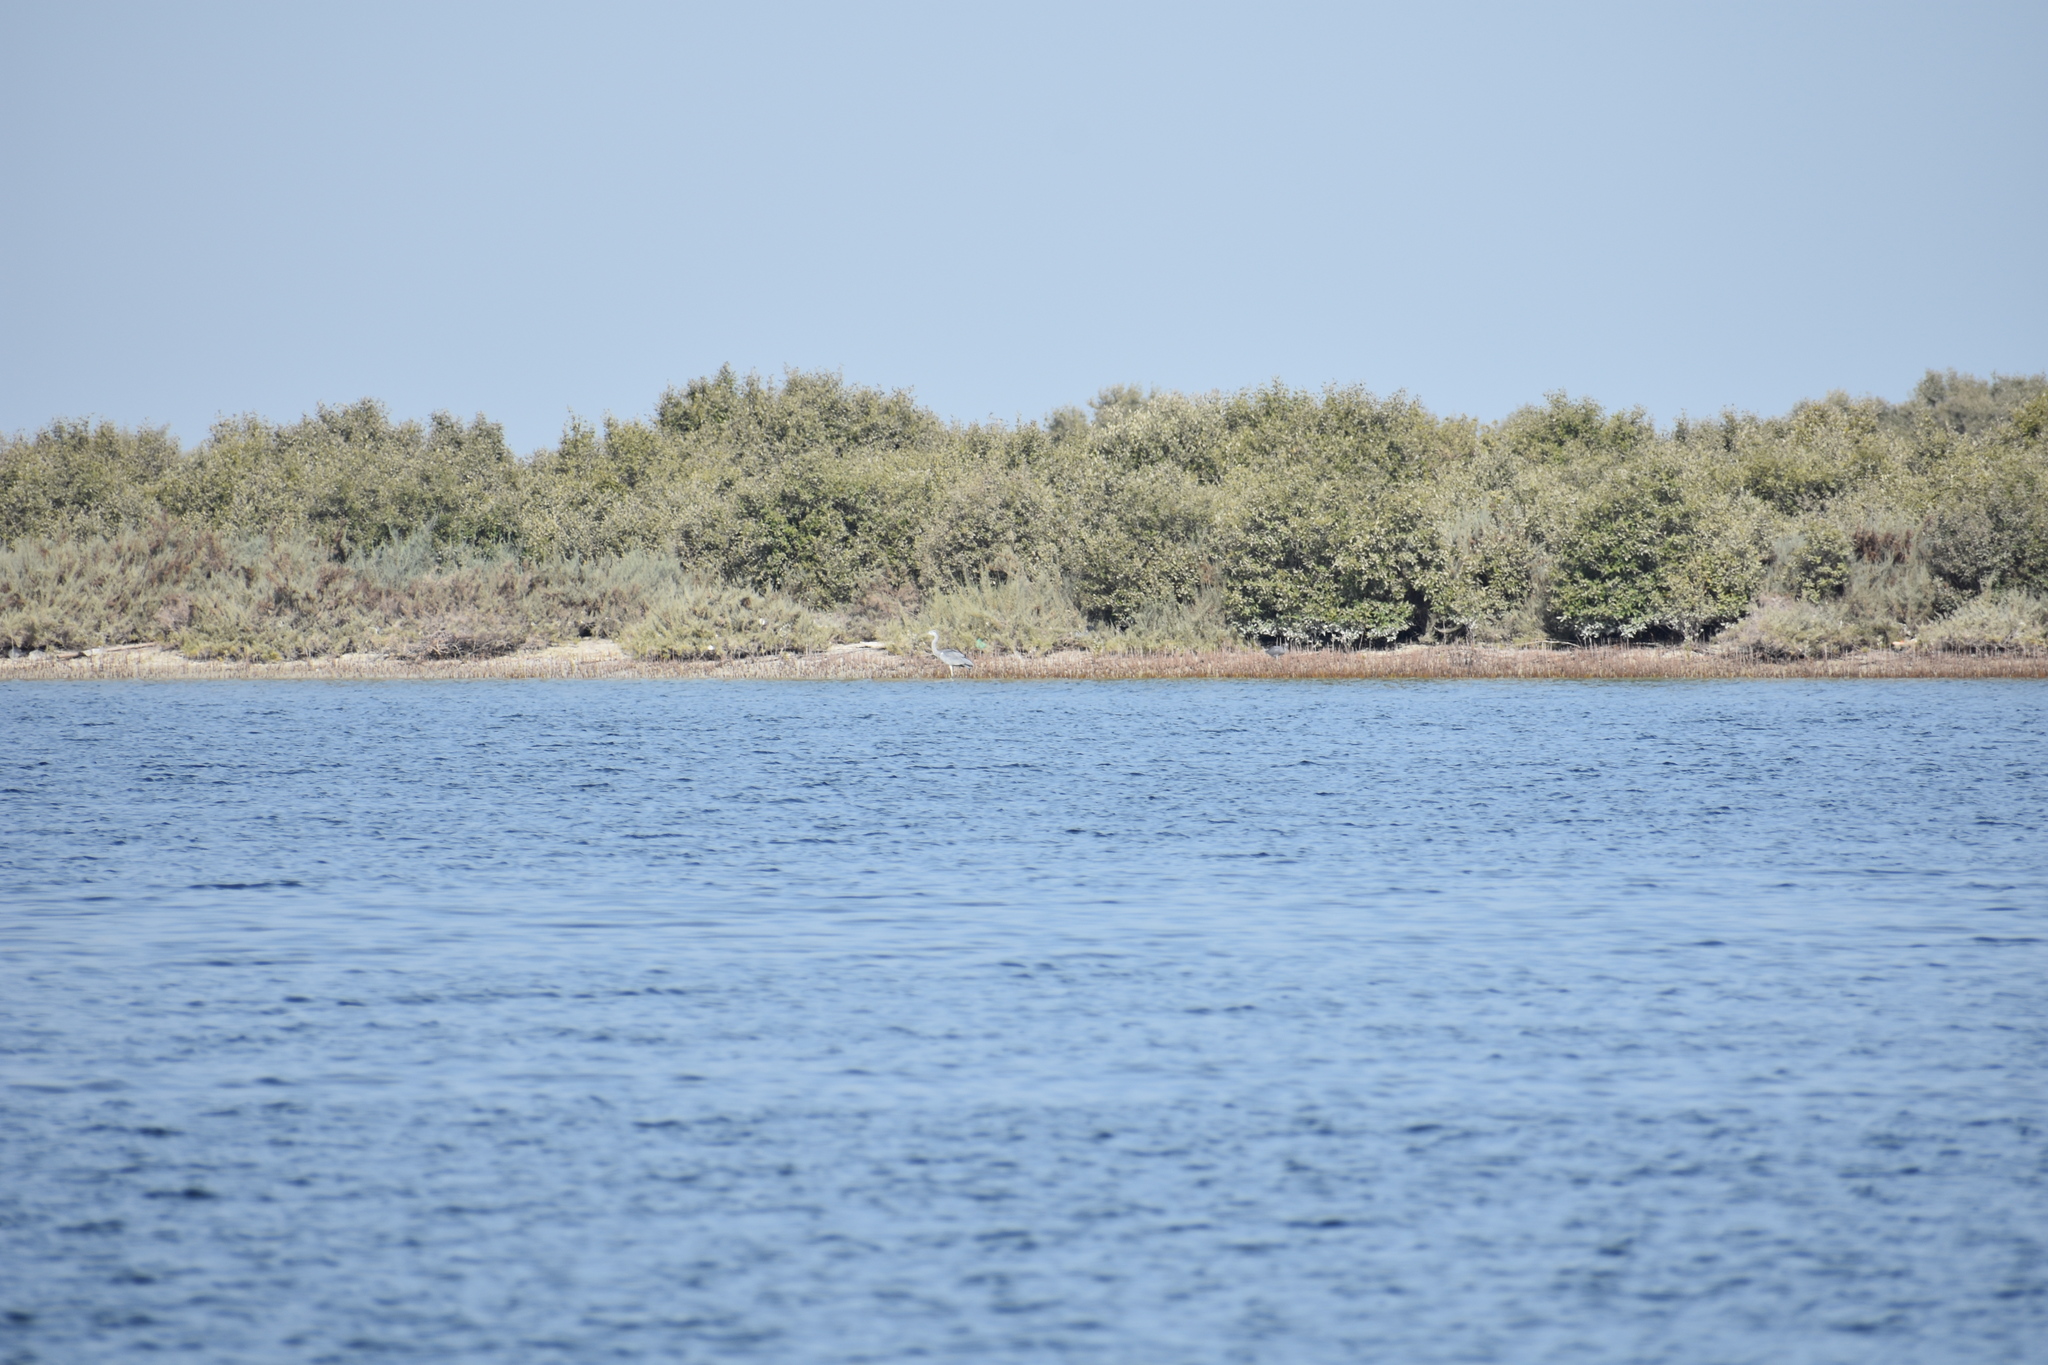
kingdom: Animalia
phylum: Chordata
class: Aves
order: Pelecaniformes
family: Ardeidae
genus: Ardea
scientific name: Ardea cinerea
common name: Grey heron
